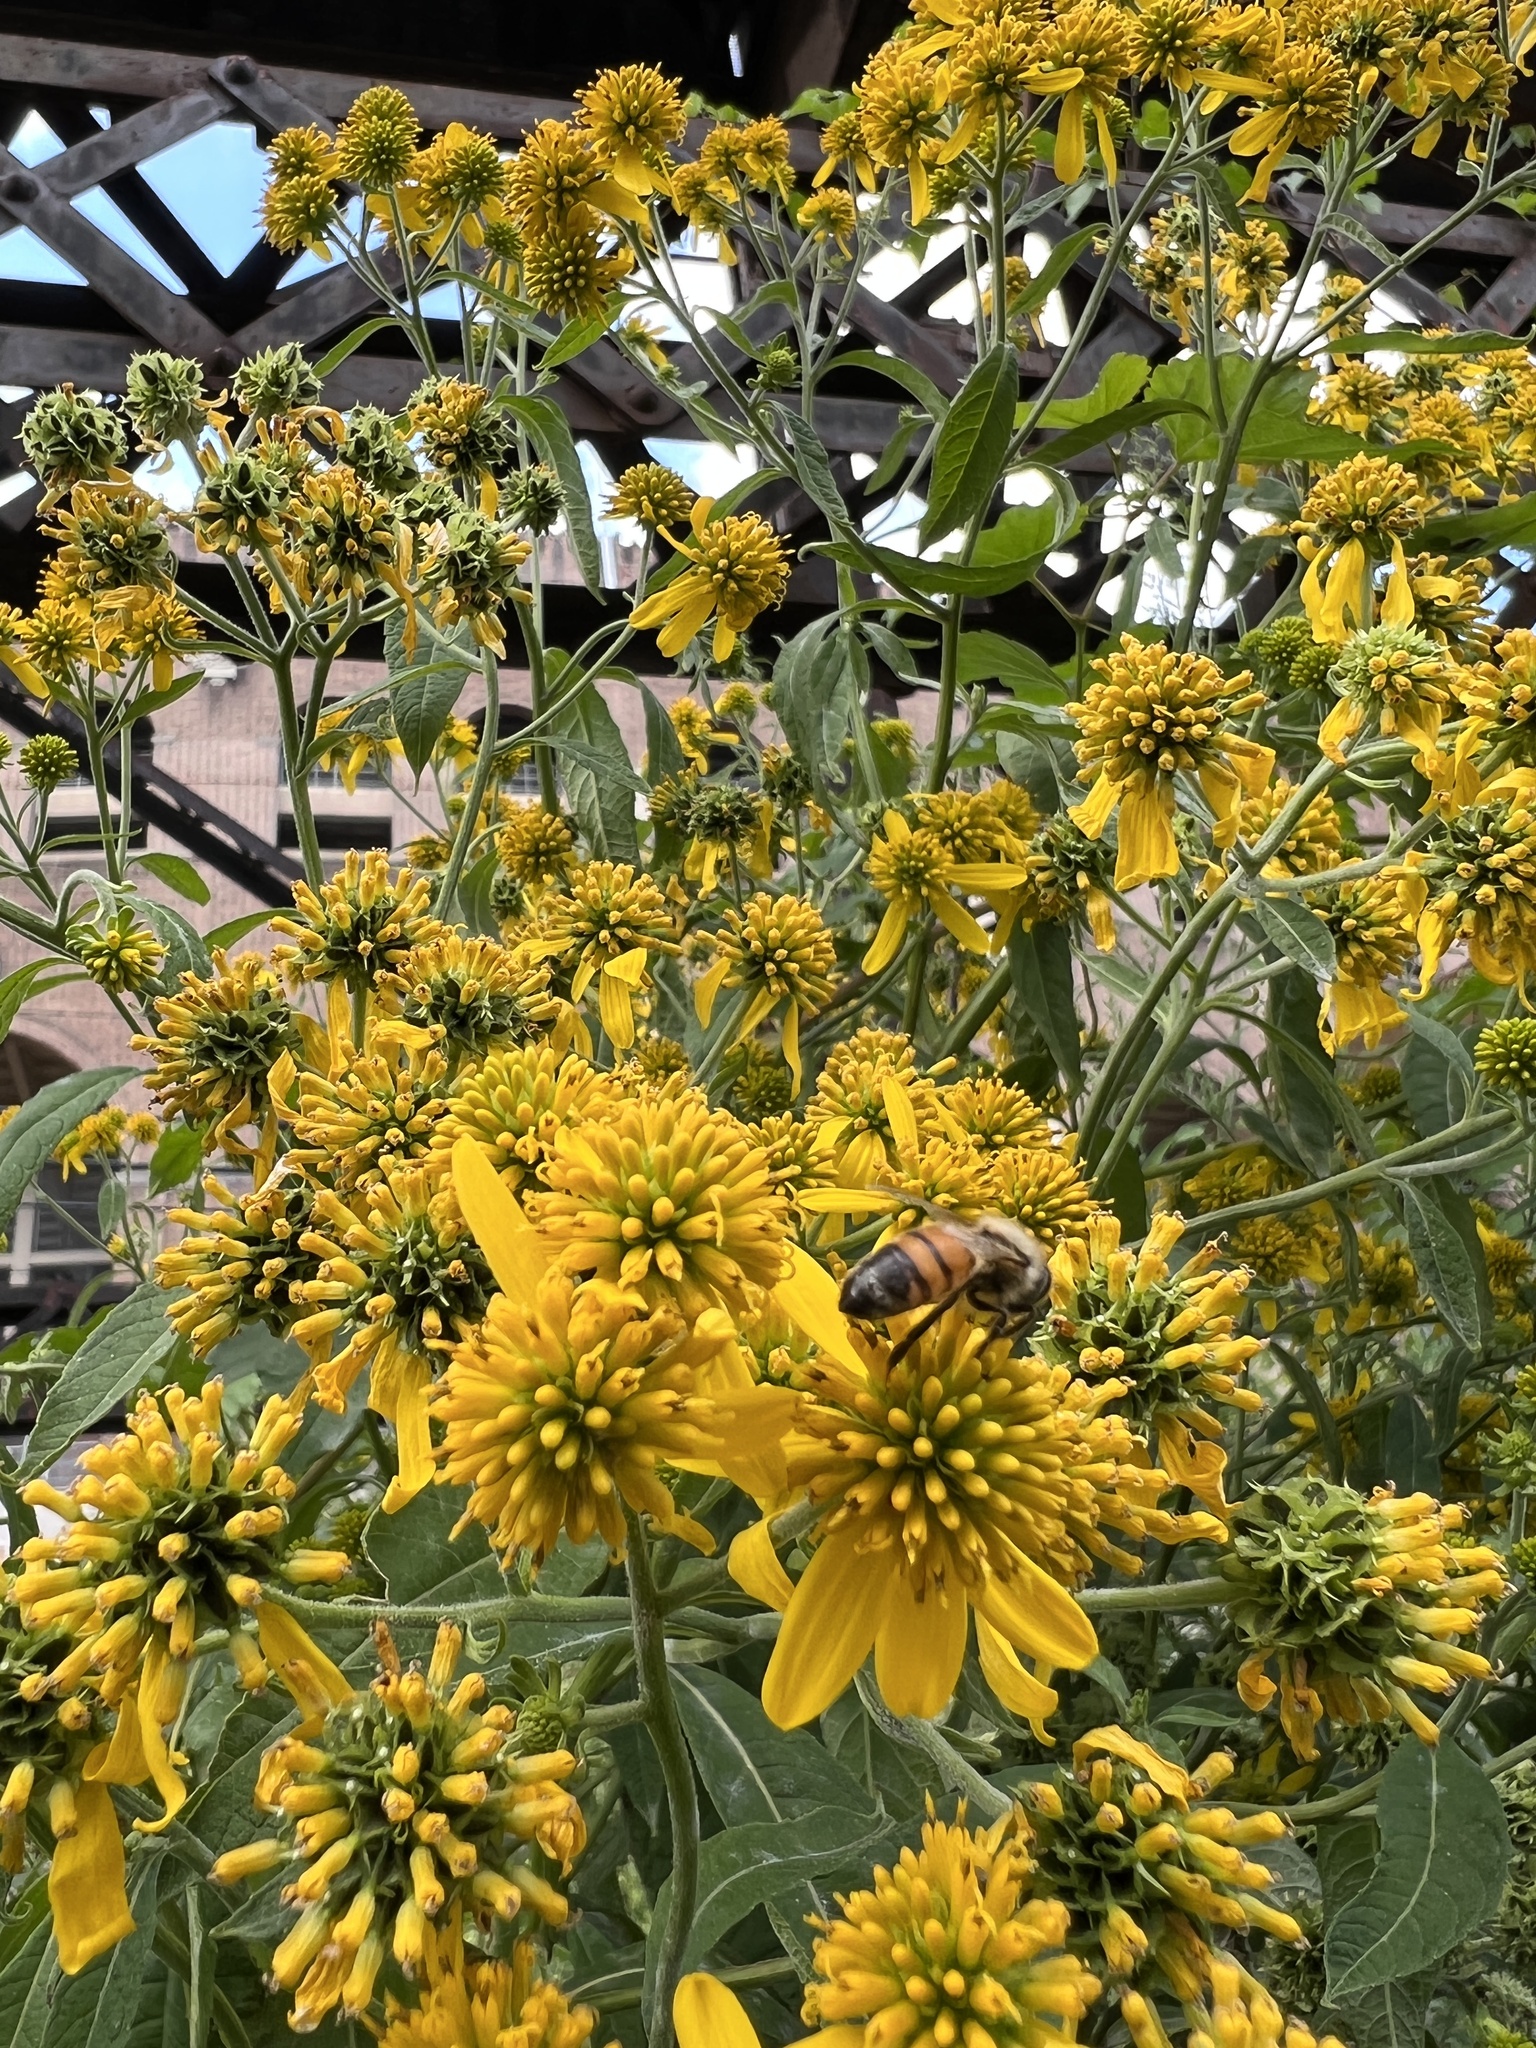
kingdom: Animalia
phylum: Arthropoda
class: Insecta
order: Hymenoptera
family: Apidae
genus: Apis
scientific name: Apis mellifera
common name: Honey bee
